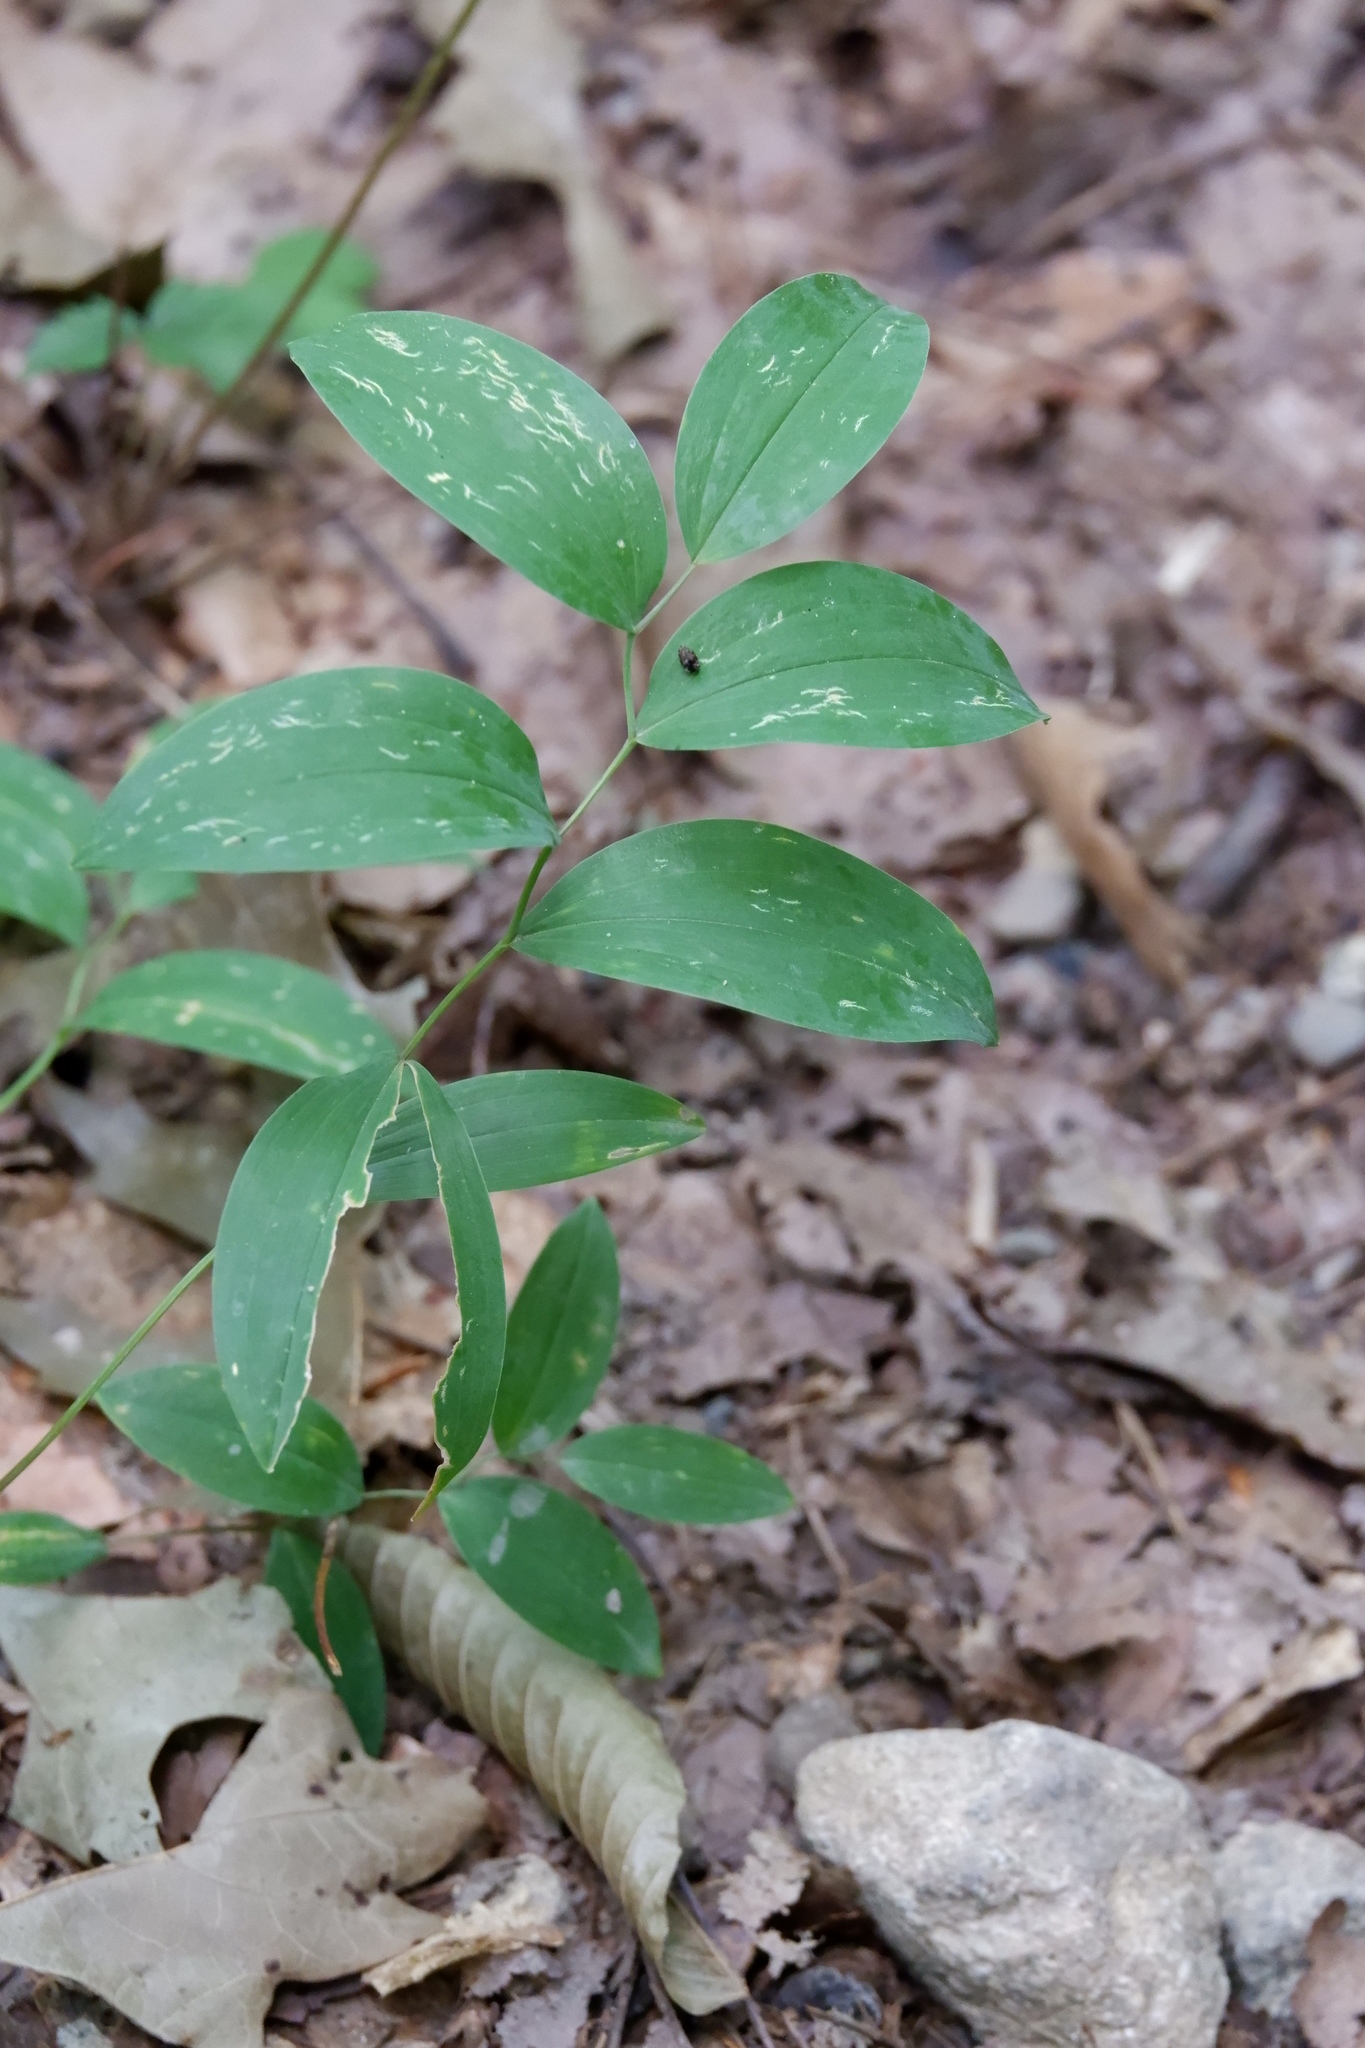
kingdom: Plantae
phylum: Tracheophyta
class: Liliopsida
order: Liliales
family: Colchicaceae
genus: Uvularia
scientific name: Uvularia sessilifolia
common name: Straw-lily
